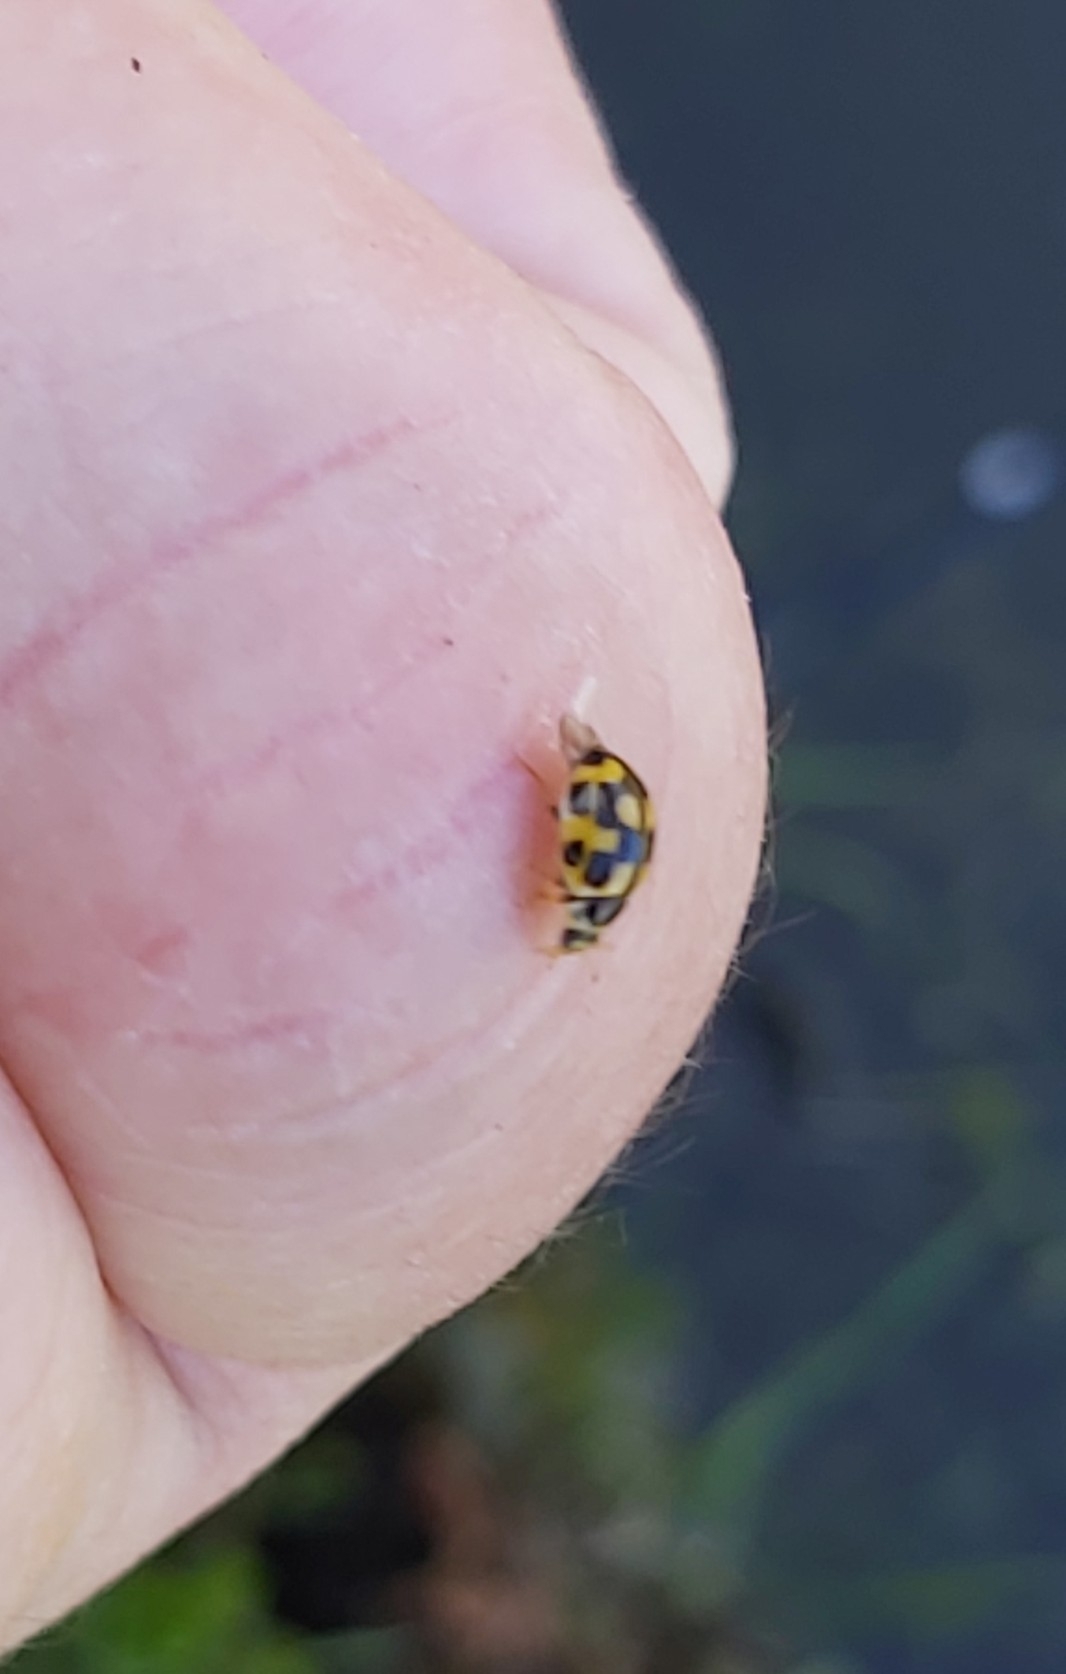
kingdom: Animalia
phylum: Arthropoda
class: Insecta
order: Coleoptera
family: Coccinellidae
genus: Propylaea
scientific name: Propylaea quatuordecimpunctata
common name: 14-spotted ladybird beetle
